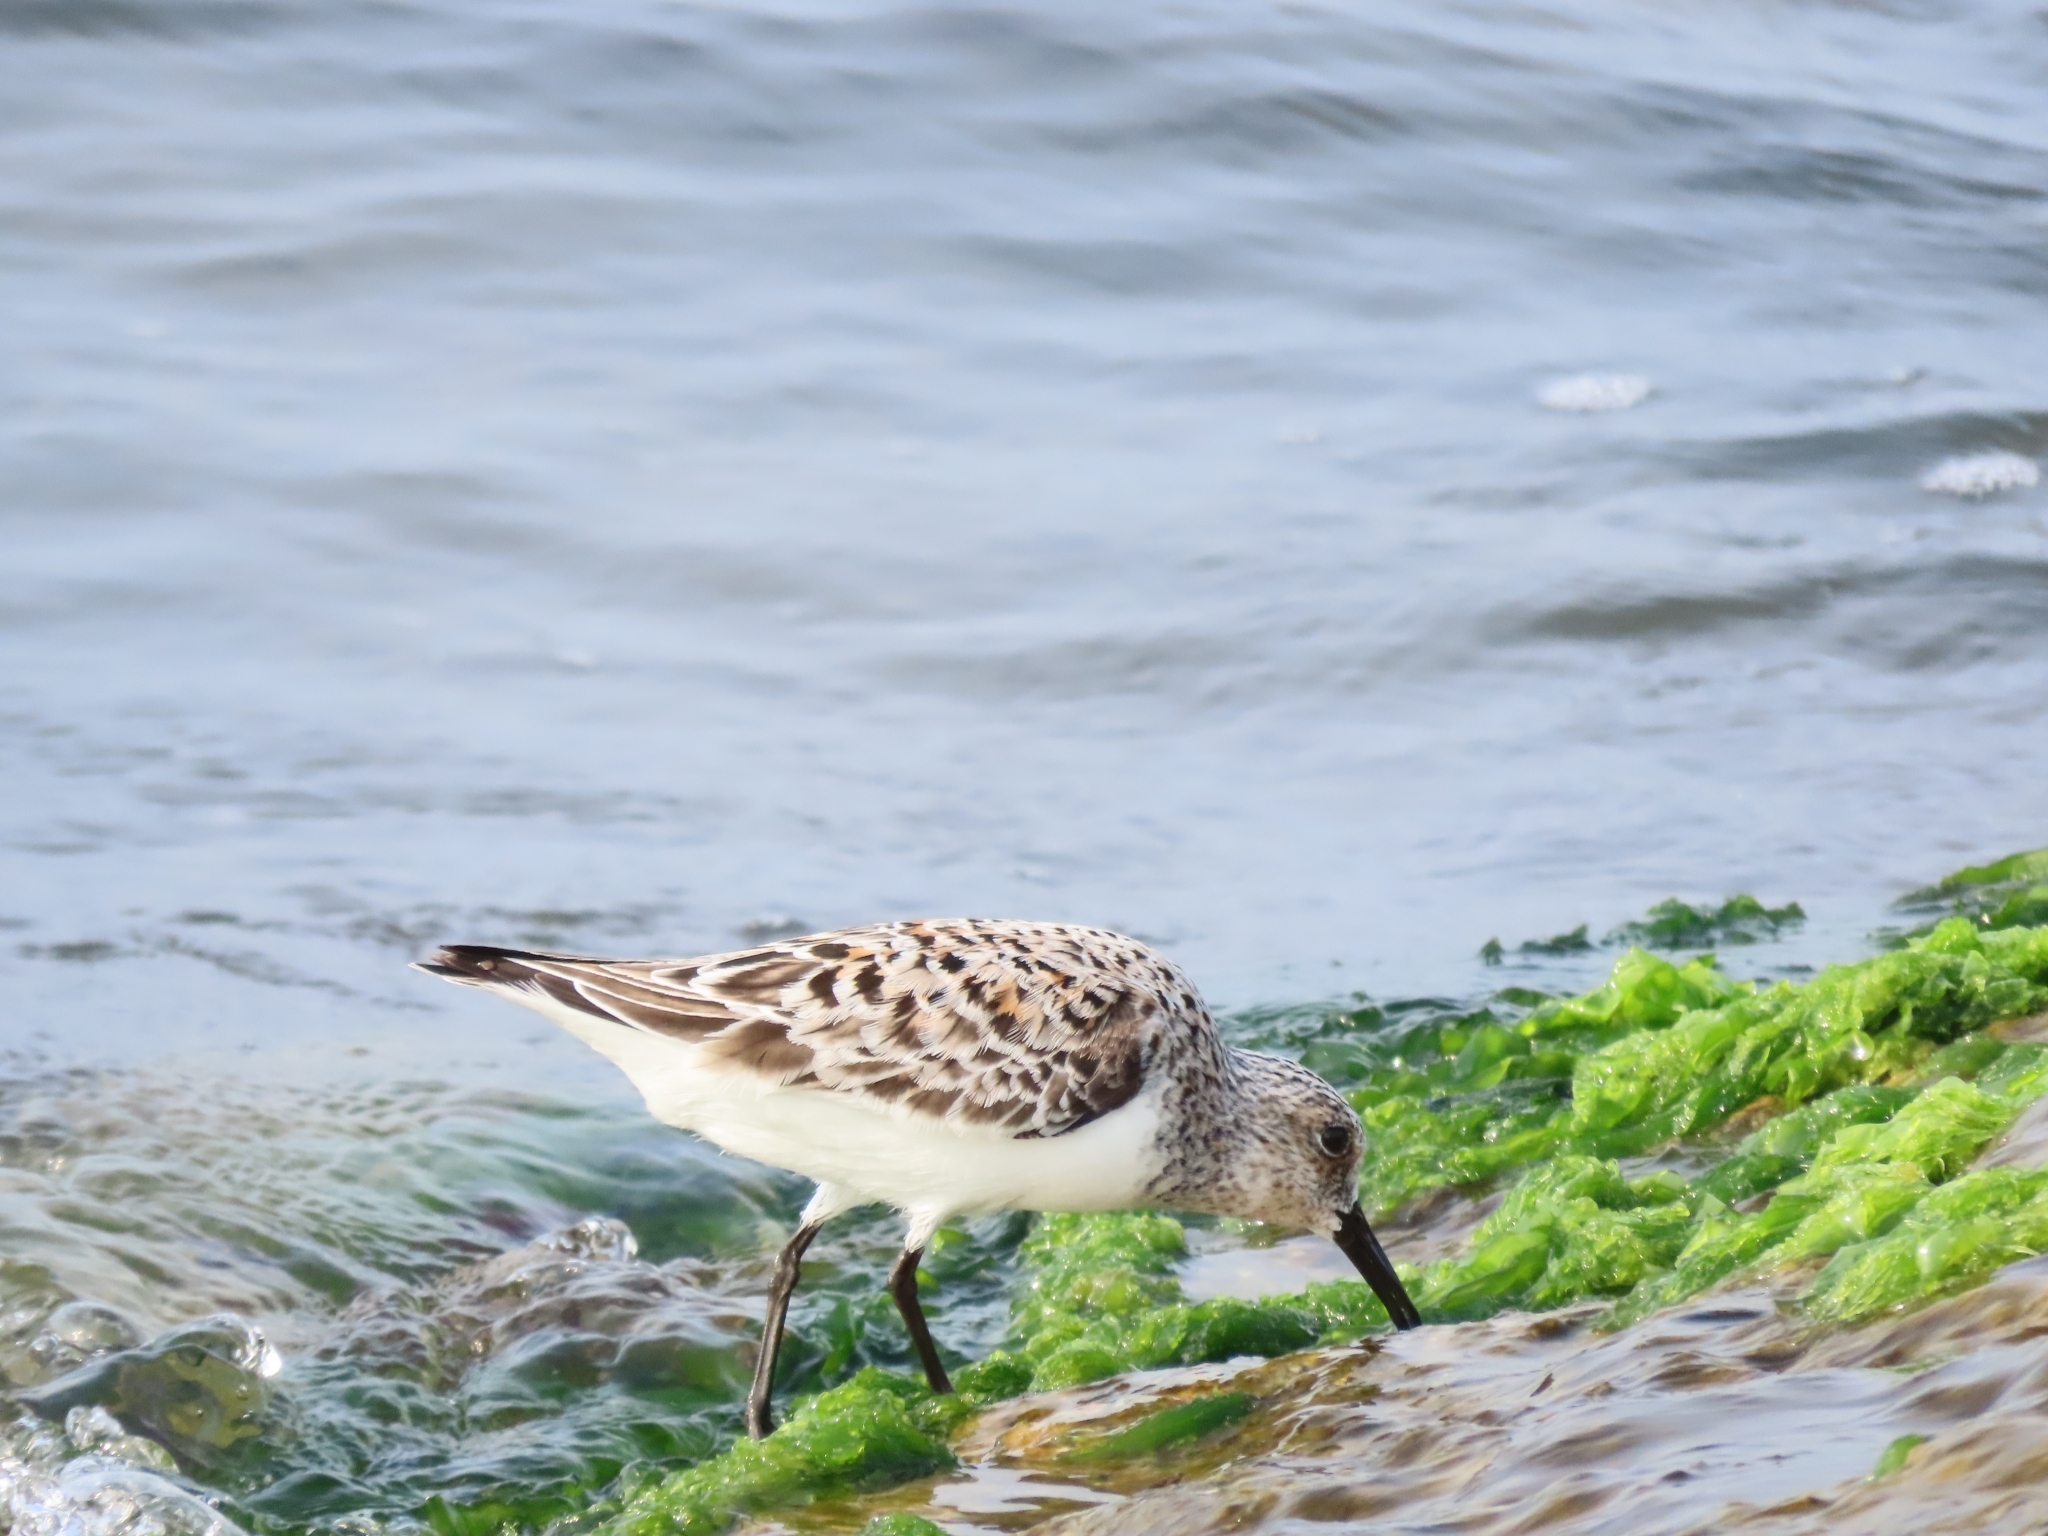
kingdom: Animalia
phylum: Chordata
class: Aves
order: Charadriiformes
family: Scolopacidae
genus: Calidris
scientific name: Calidris alba
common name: Sanderling
